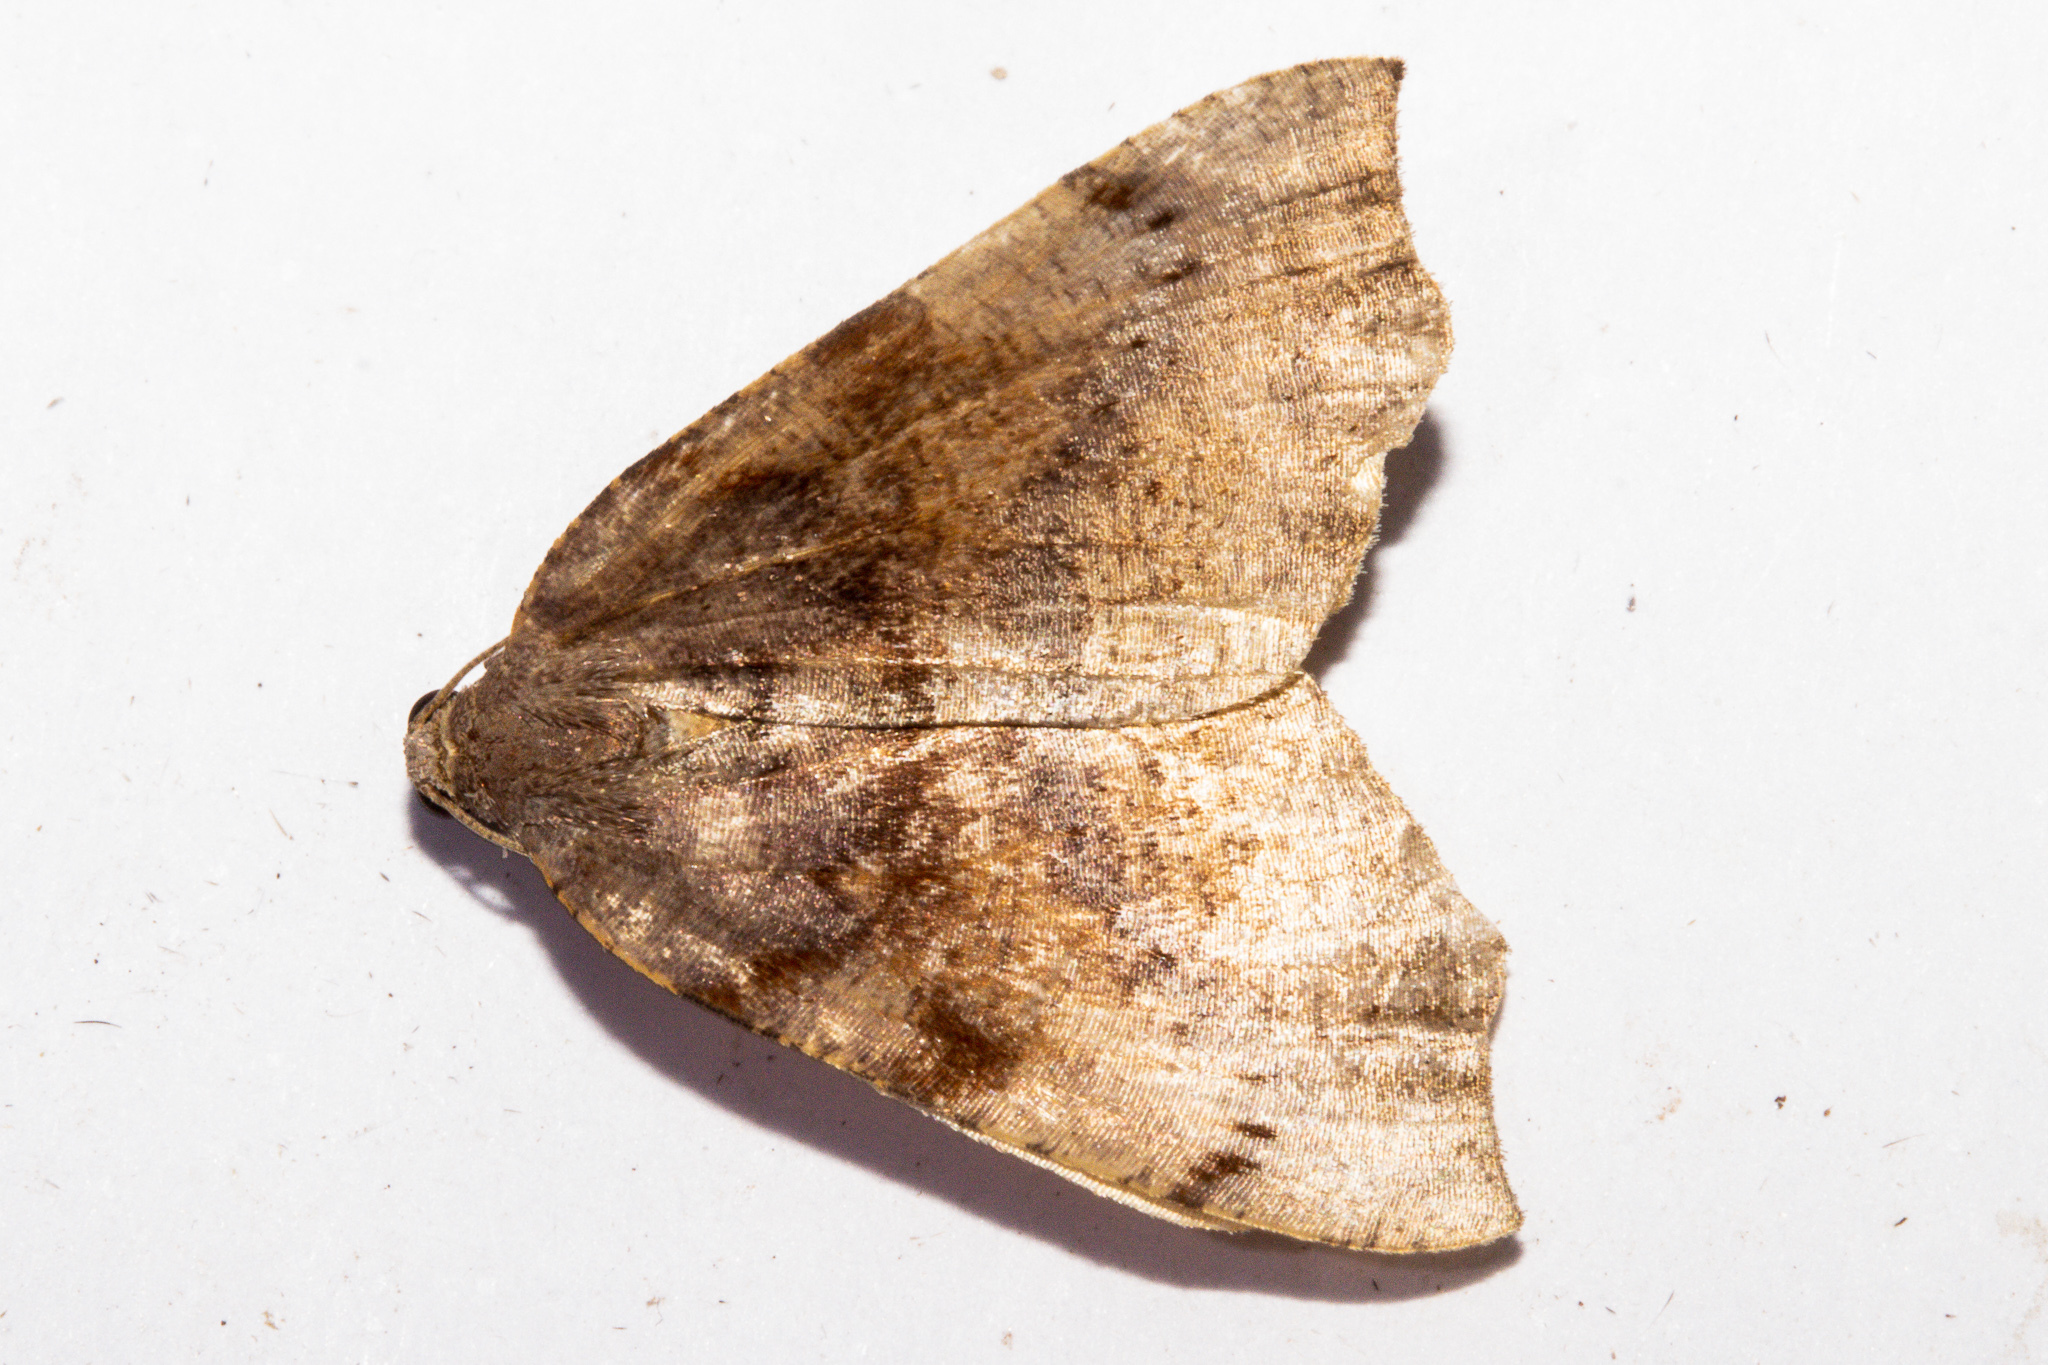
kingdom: Animalia
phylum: Arthropoda
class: Insecta
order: Lepidoptera
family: Geometridae
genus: Sestra
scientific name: Sestra flexata
